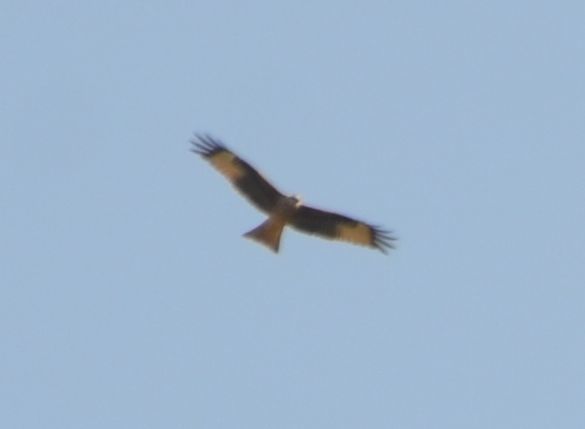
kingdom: Animalia
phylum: Chordata
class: Aves
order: Accipitriformes
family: Accipitridae
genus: Milvus
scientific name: Milvus milvus
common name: Red kite
